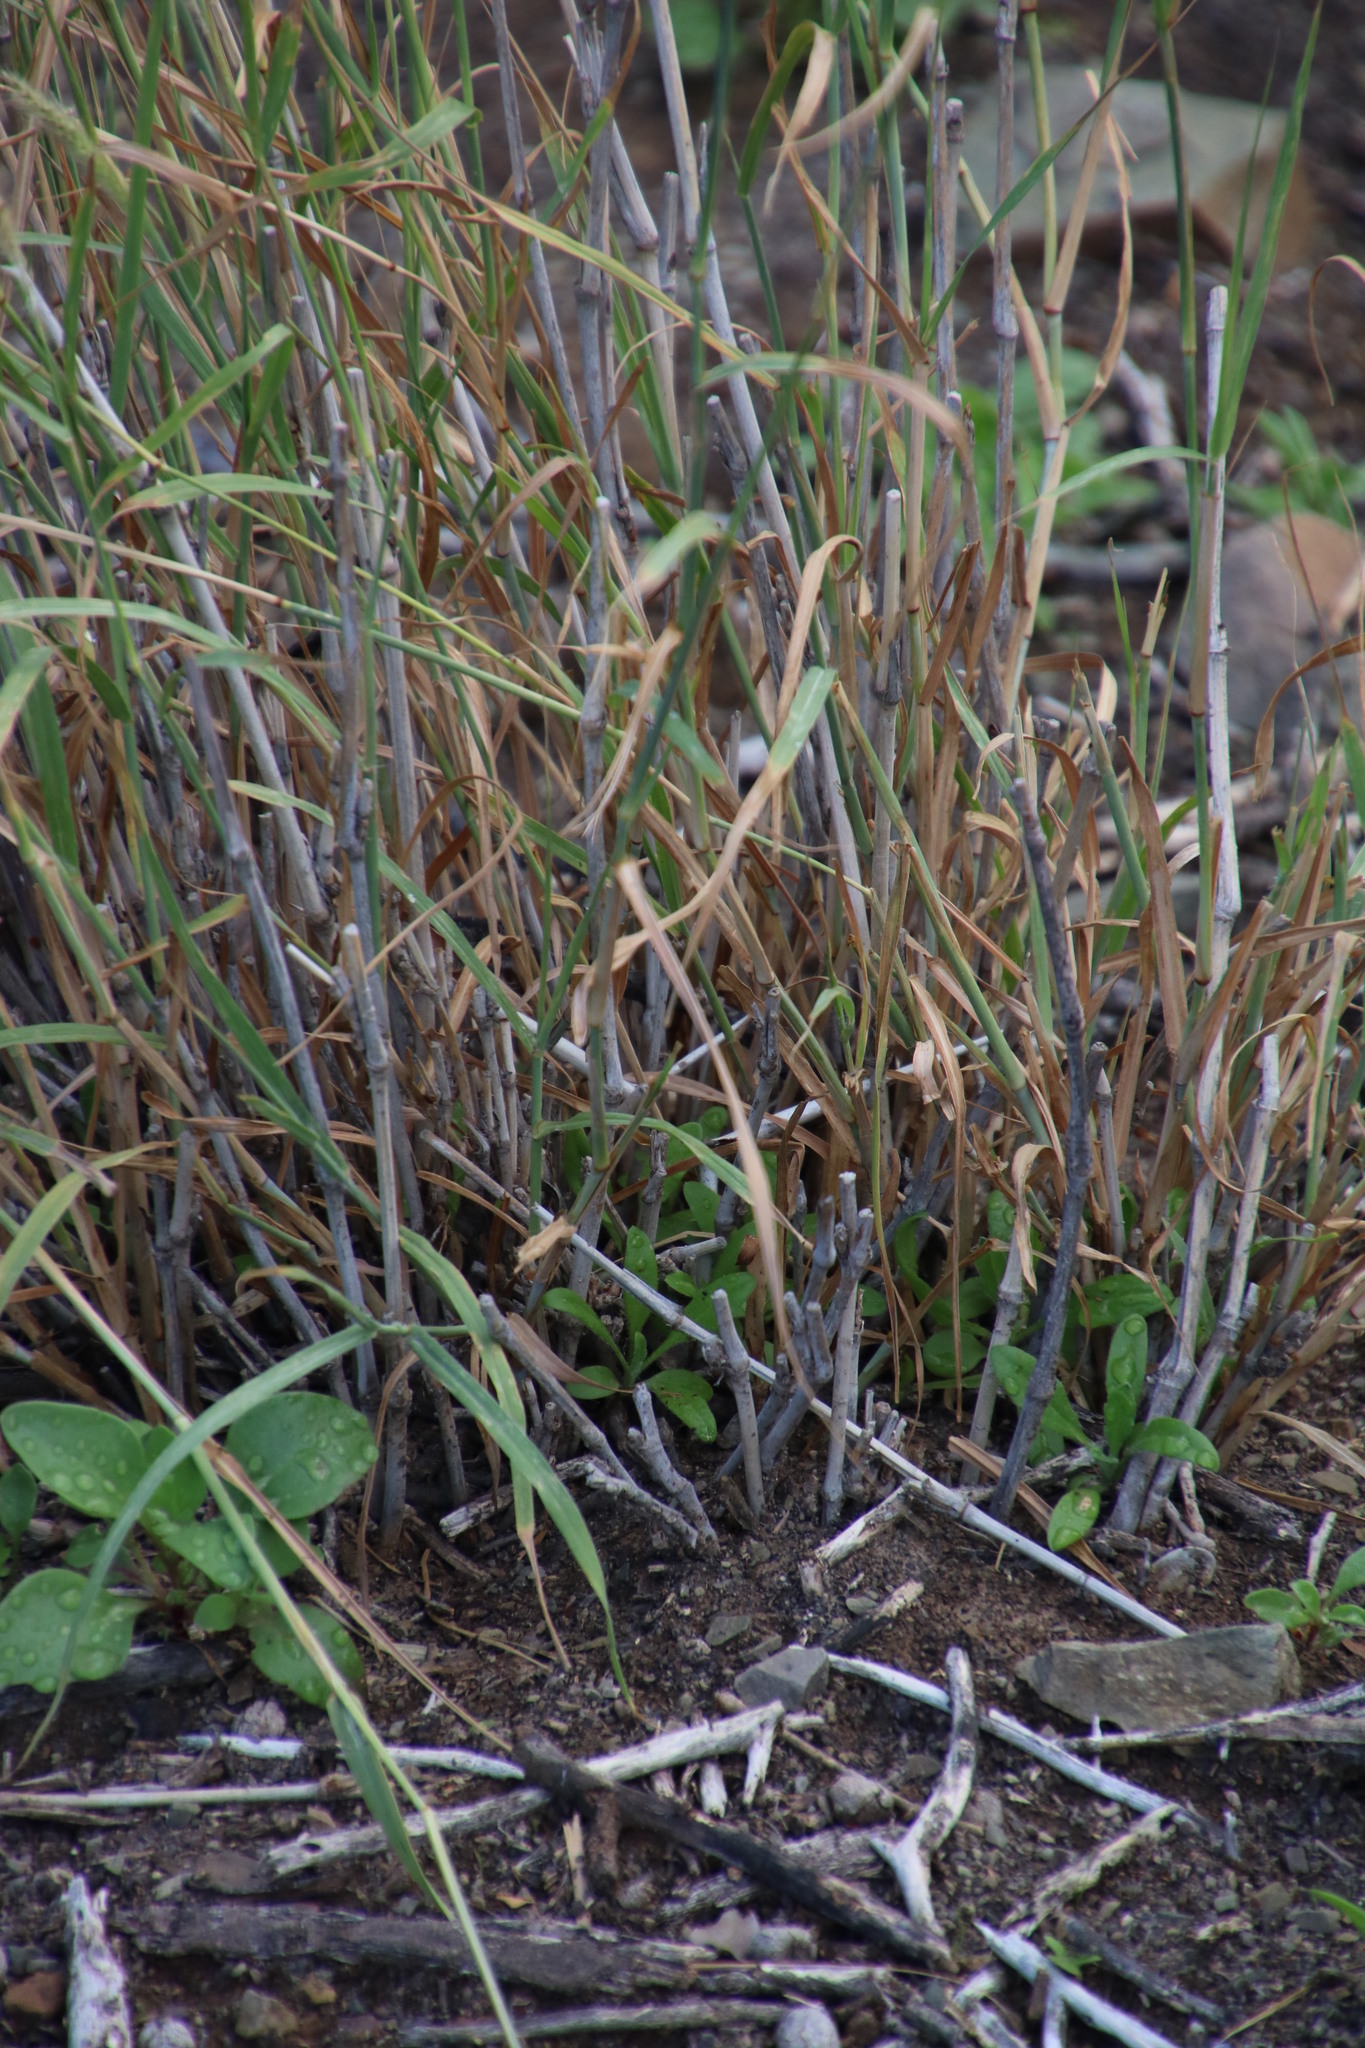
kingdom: Plantae
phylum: Tracheophyta
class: Liliopsida
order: Poales
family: Poaceae
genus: Cenchrus
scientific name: Cenchrus ciliaris
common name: Buffelgrass
